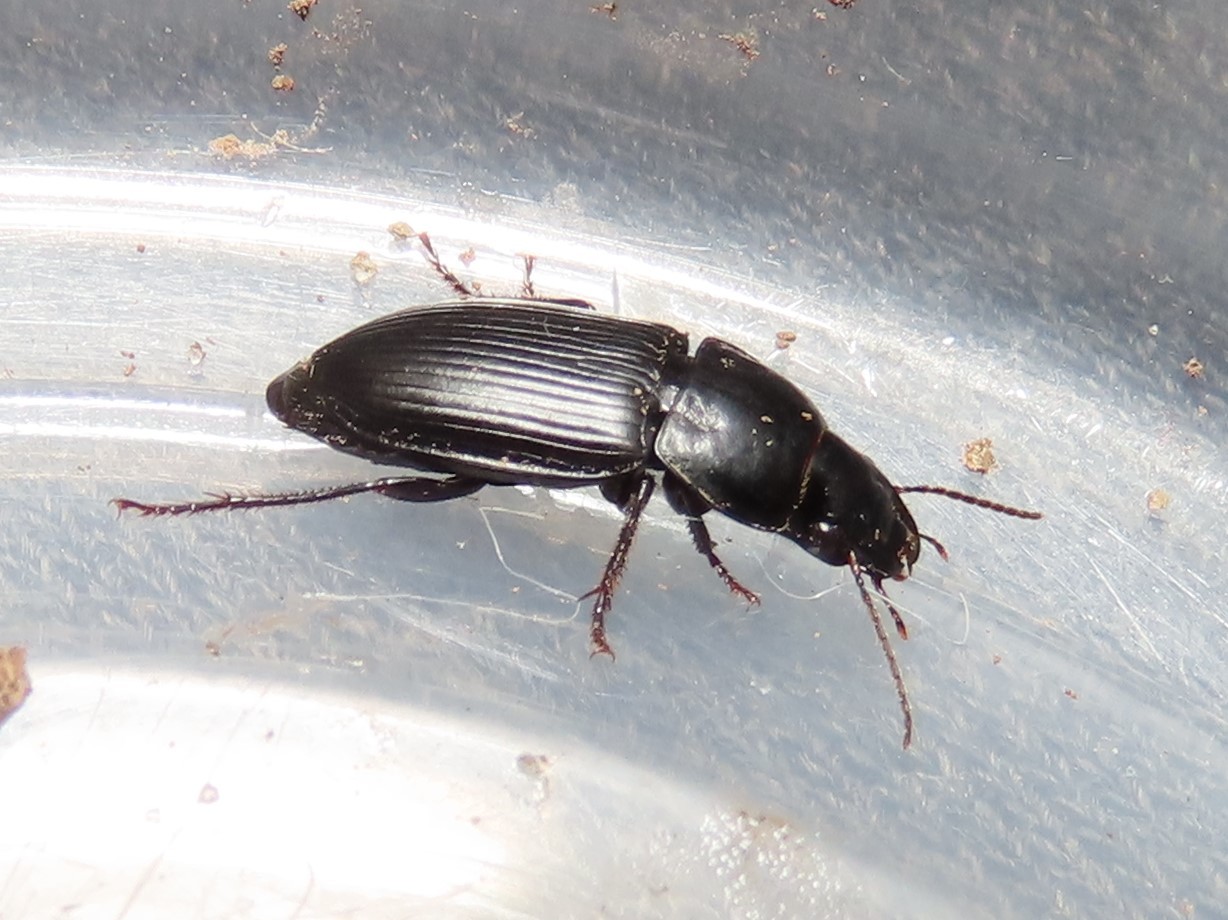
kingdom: Animalia
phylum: Arthropoda
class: Insecta
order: Coleoptera
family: Carabidae
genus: Anisodactylus
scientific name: Anisodactylus harrisii
